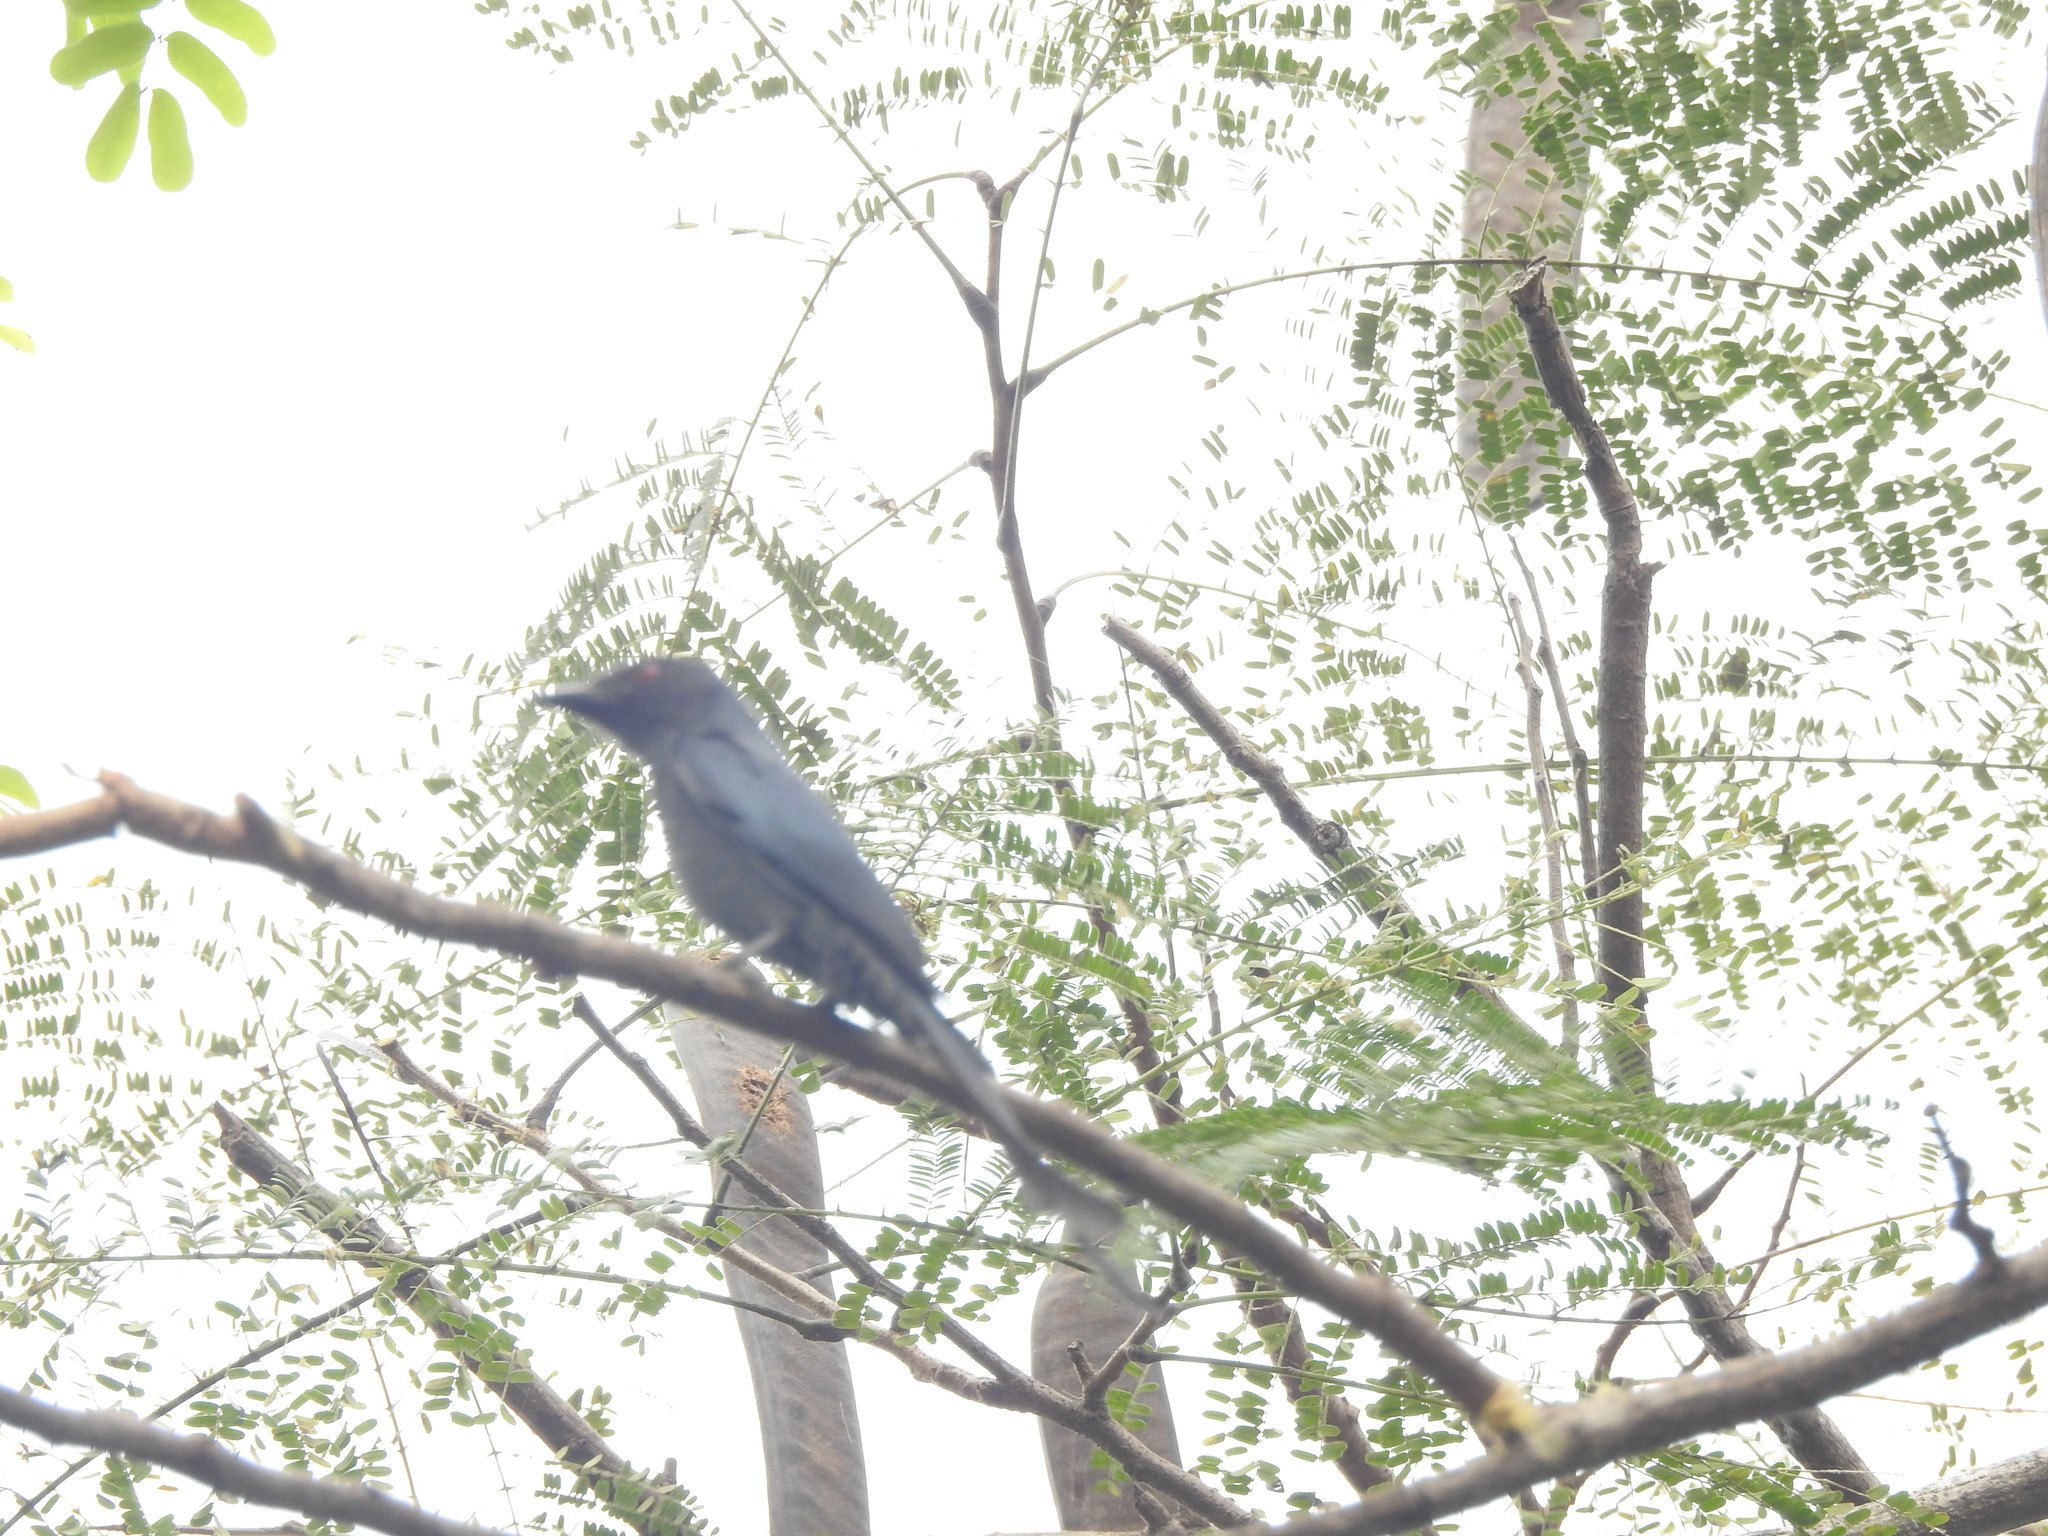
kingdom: Animalia
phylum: Chordata
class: Aves
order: Passeriformes
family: Dicruridae
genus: Dicrurus
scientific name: Dicrurus leucophaeus
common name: Ashy drongo
